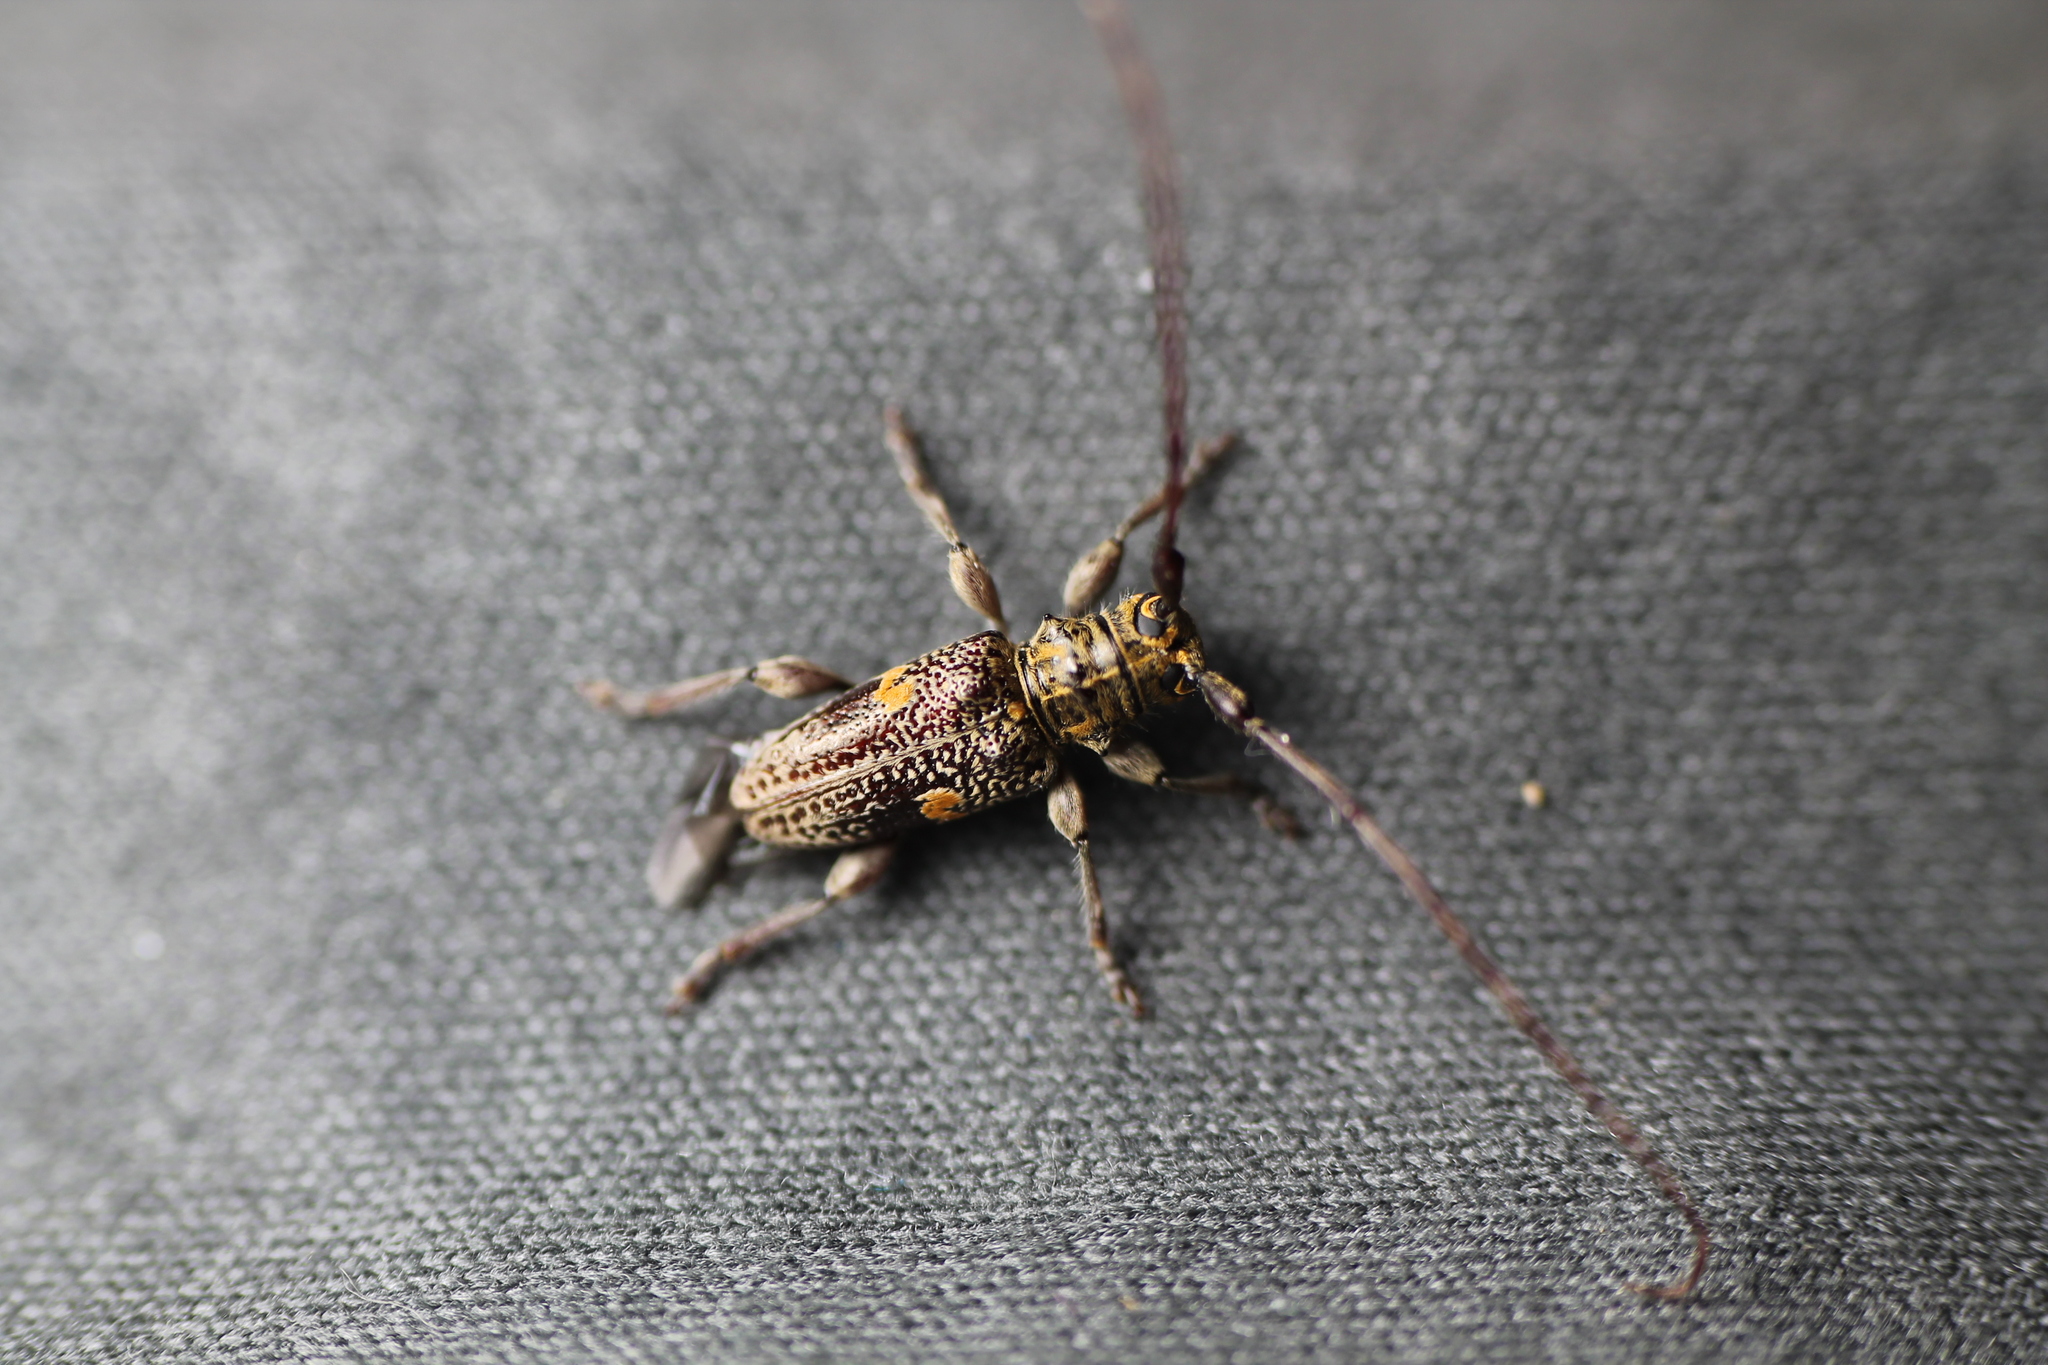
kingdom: Animalia
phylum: Arthropoda
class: Insecta
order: Coleoptera
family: Cerambycidae
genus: Hybolasius
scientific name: Hybolasius
